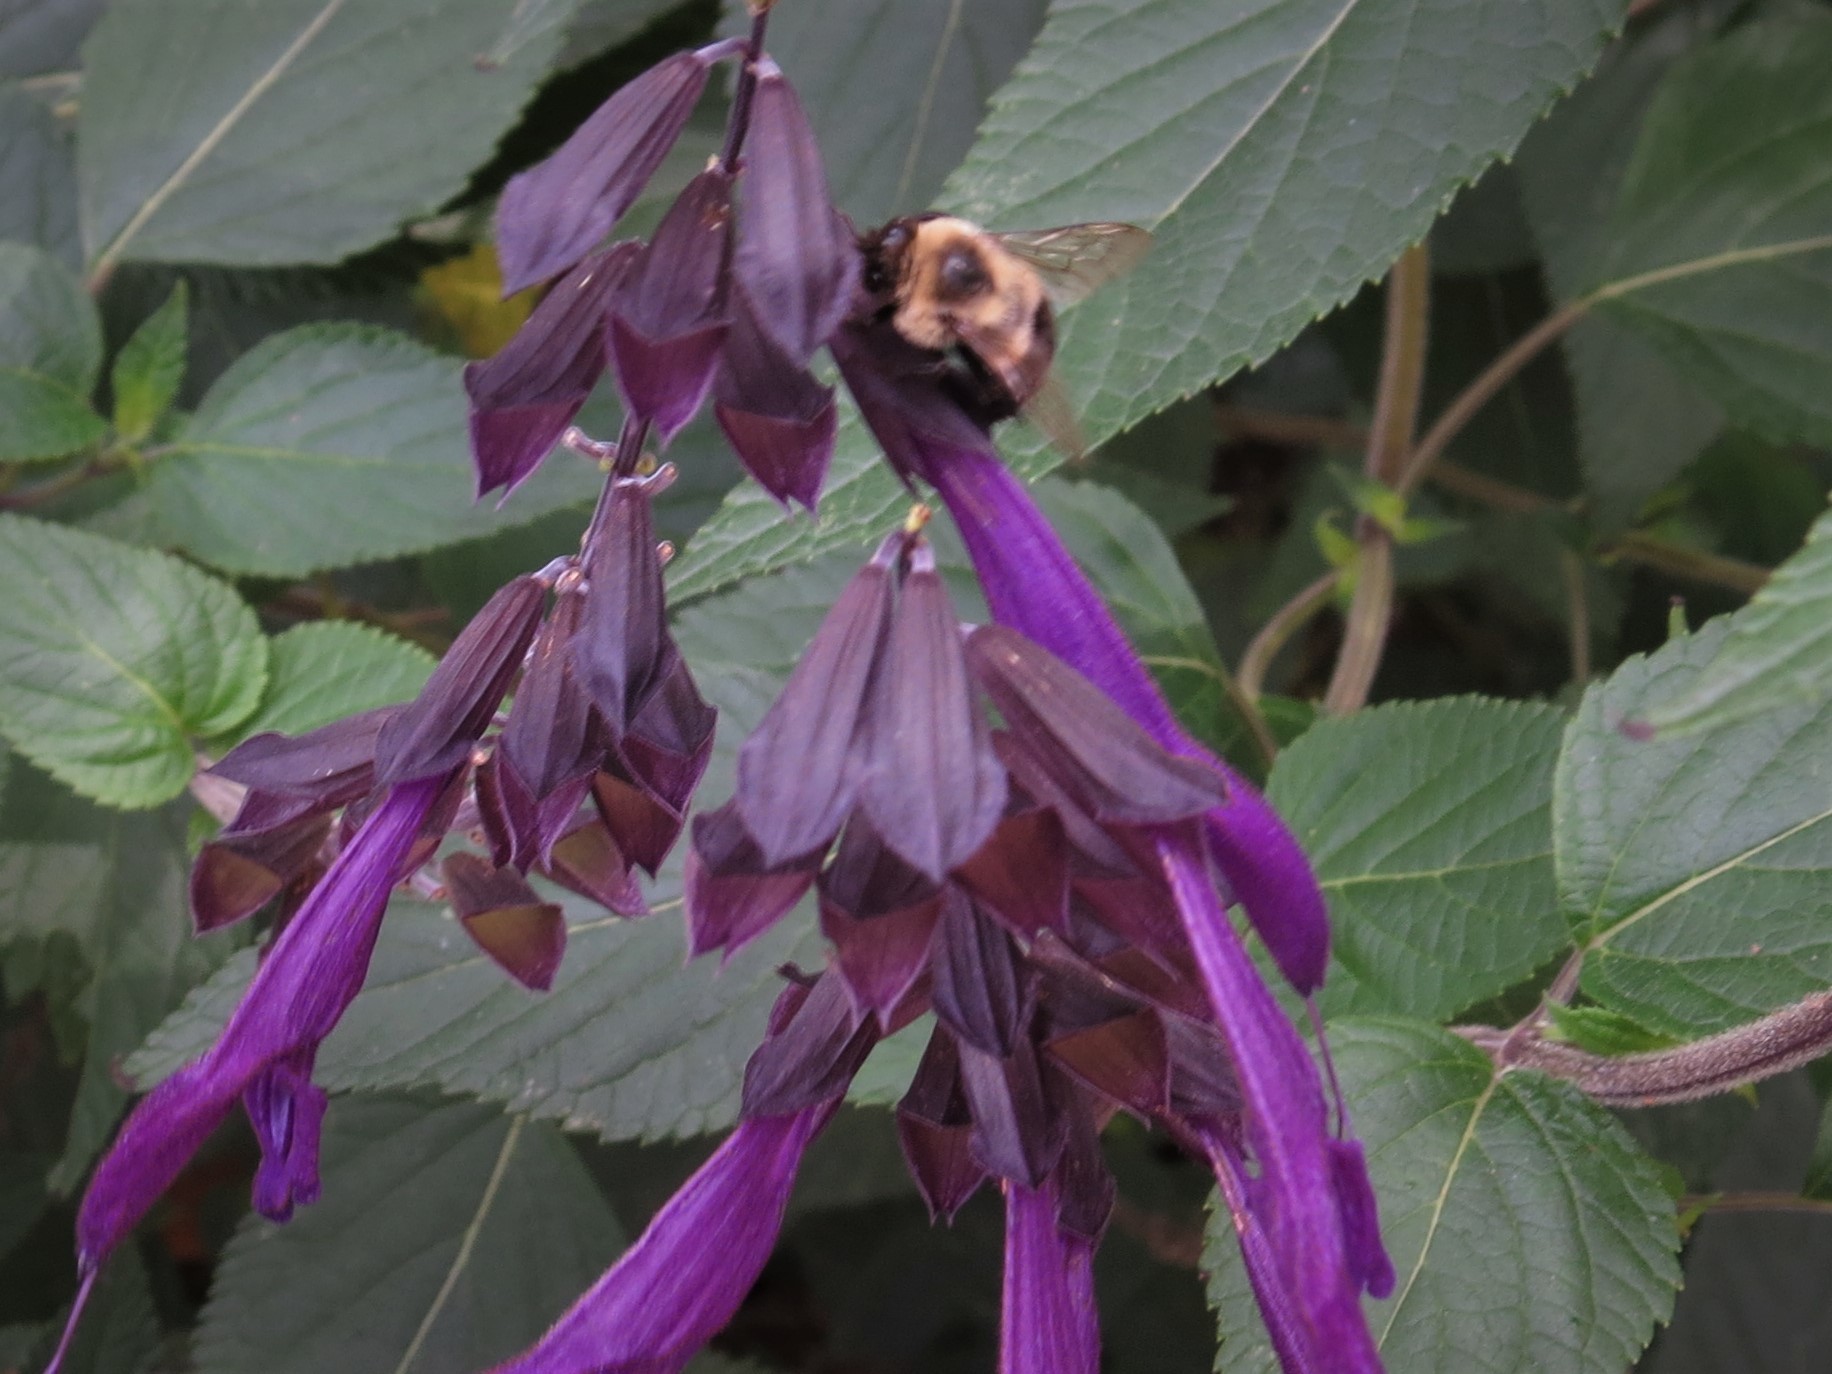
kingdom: Animalia
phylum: Arthropoda
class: Insecta
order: Hymenoptera
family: Apidae
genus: Bombus
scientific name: Bombus impatiens
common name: Common eastern bumble bee
